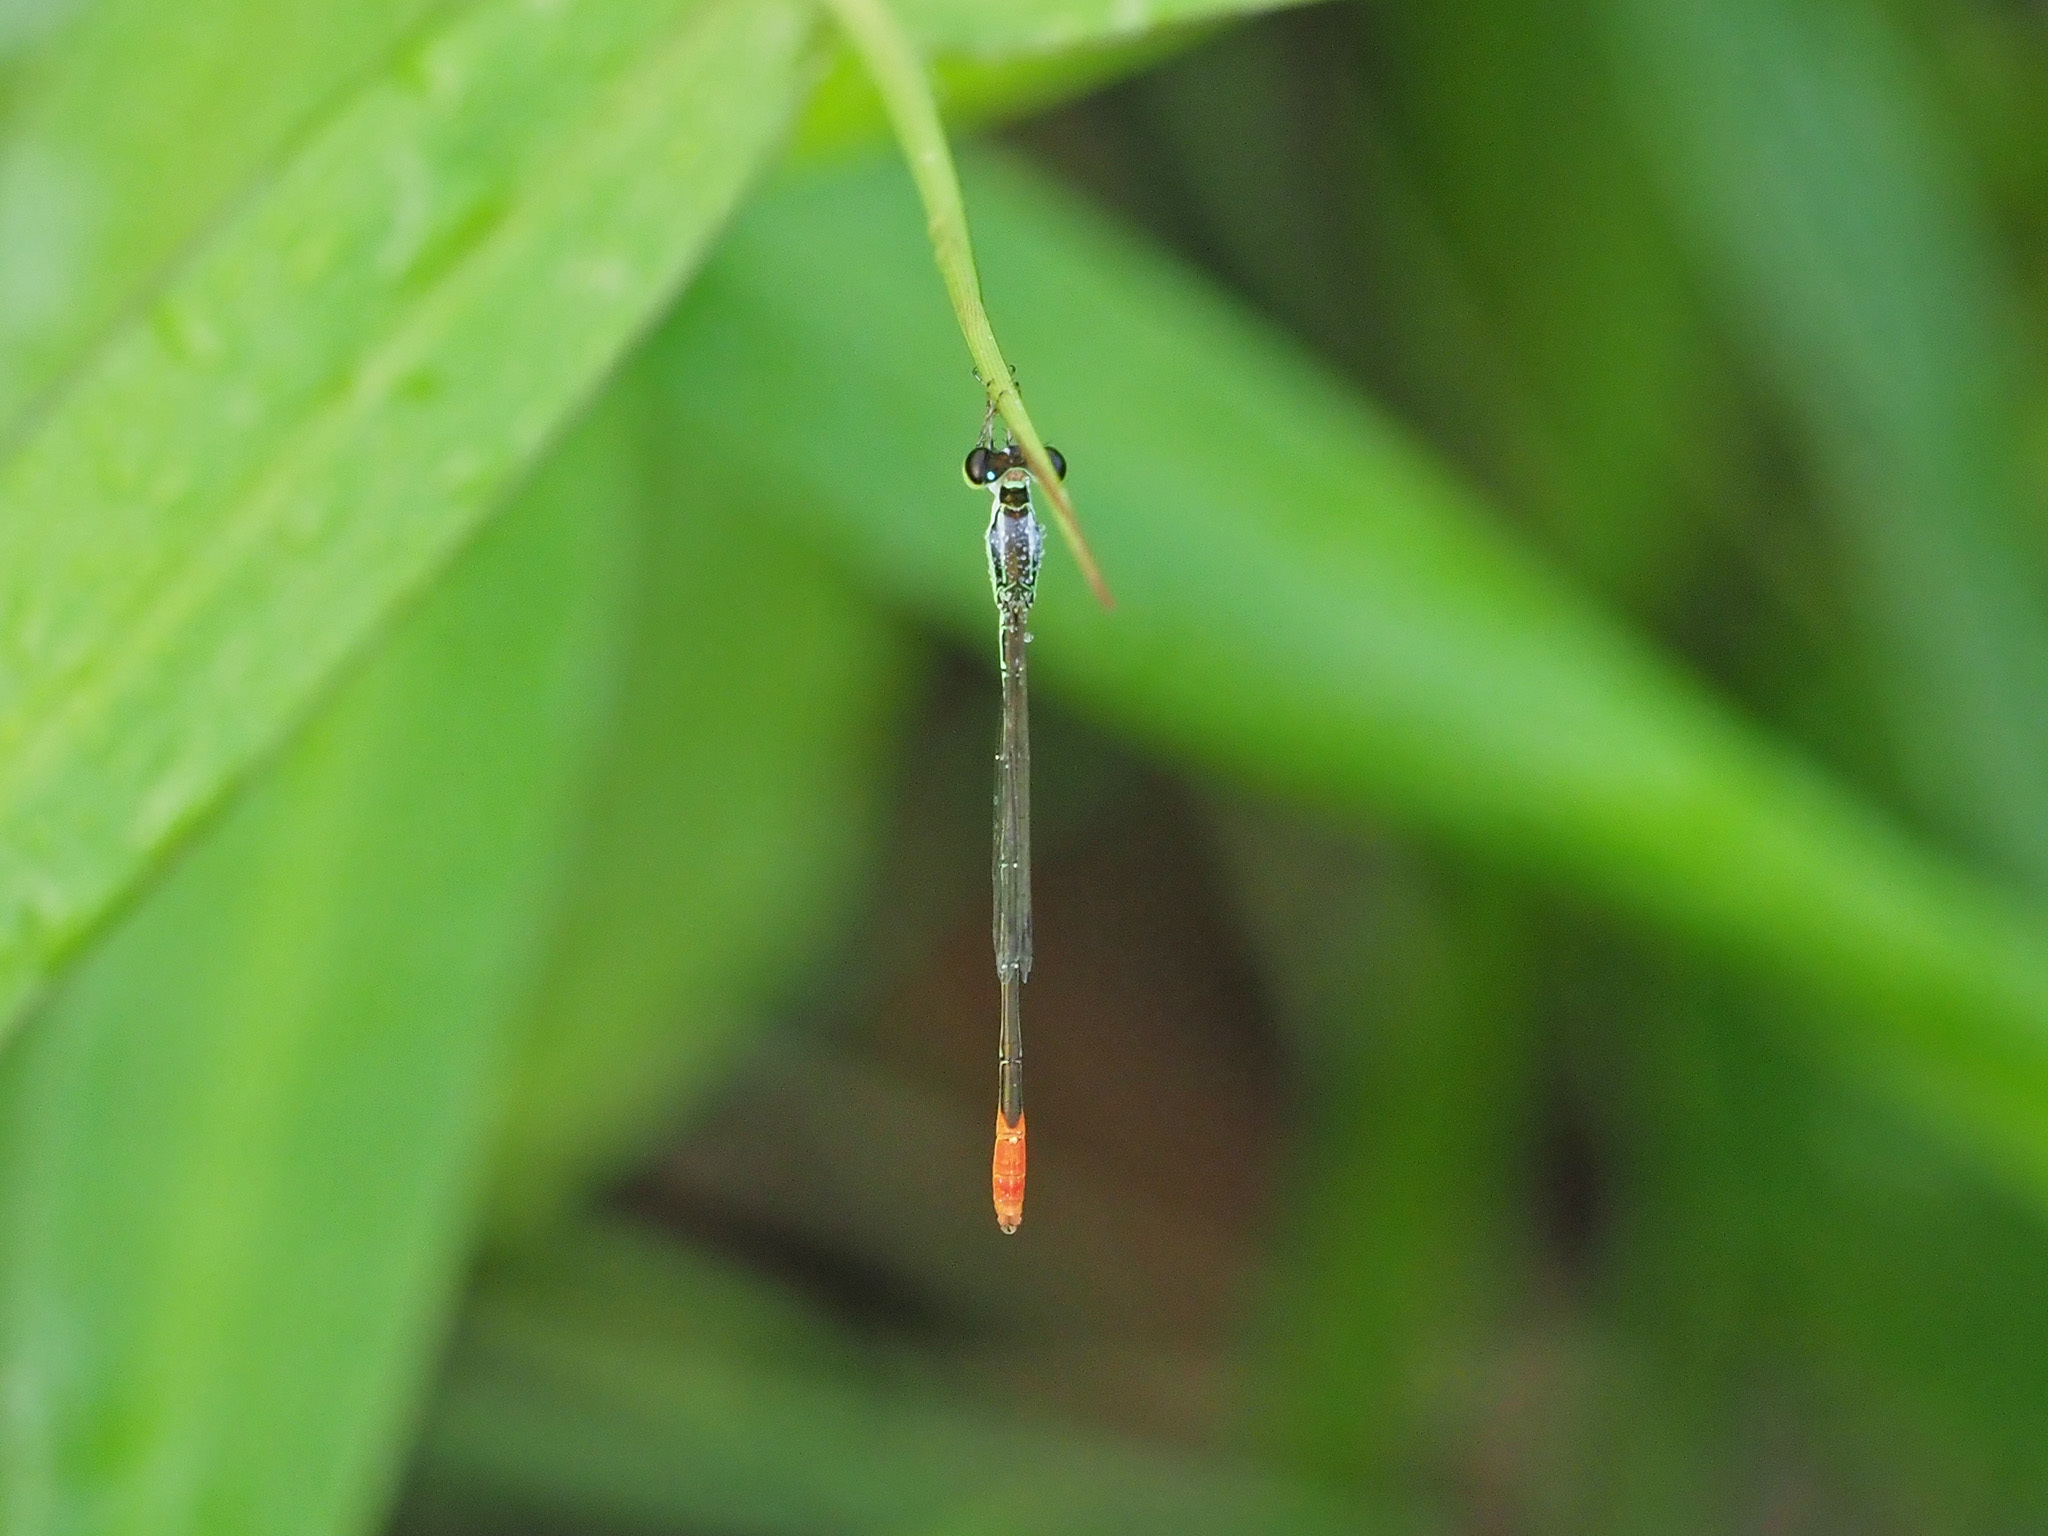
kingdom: Animalia
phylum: Arthropoda
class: Insecta
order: Odonata
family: Coenagrionidae
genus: Agriocnemis
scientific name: Agriocnemis femina
